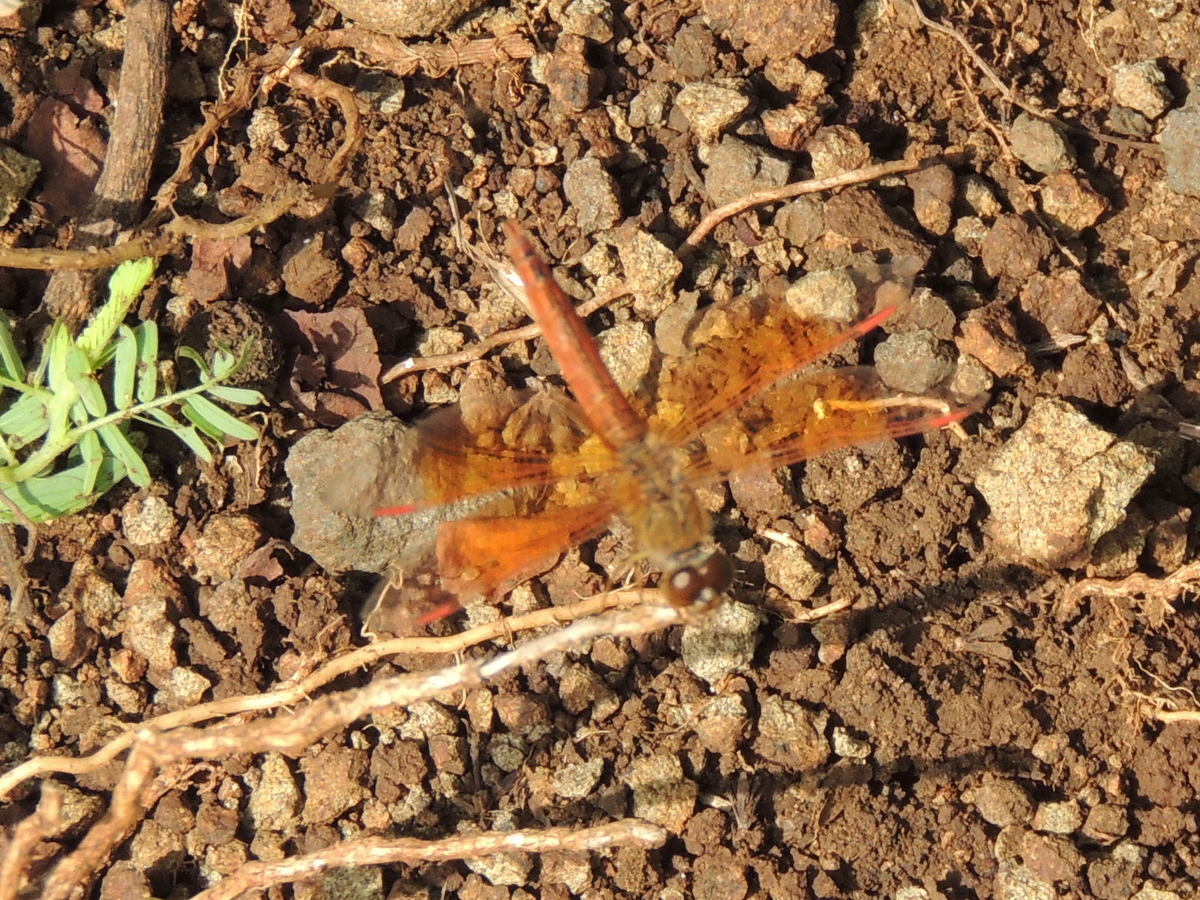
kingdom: Animalia
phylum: Arthropoda
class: Insecta
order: Odonata
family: Libellulidae
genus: Brachythemis
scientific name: Brachythemis contaminata
